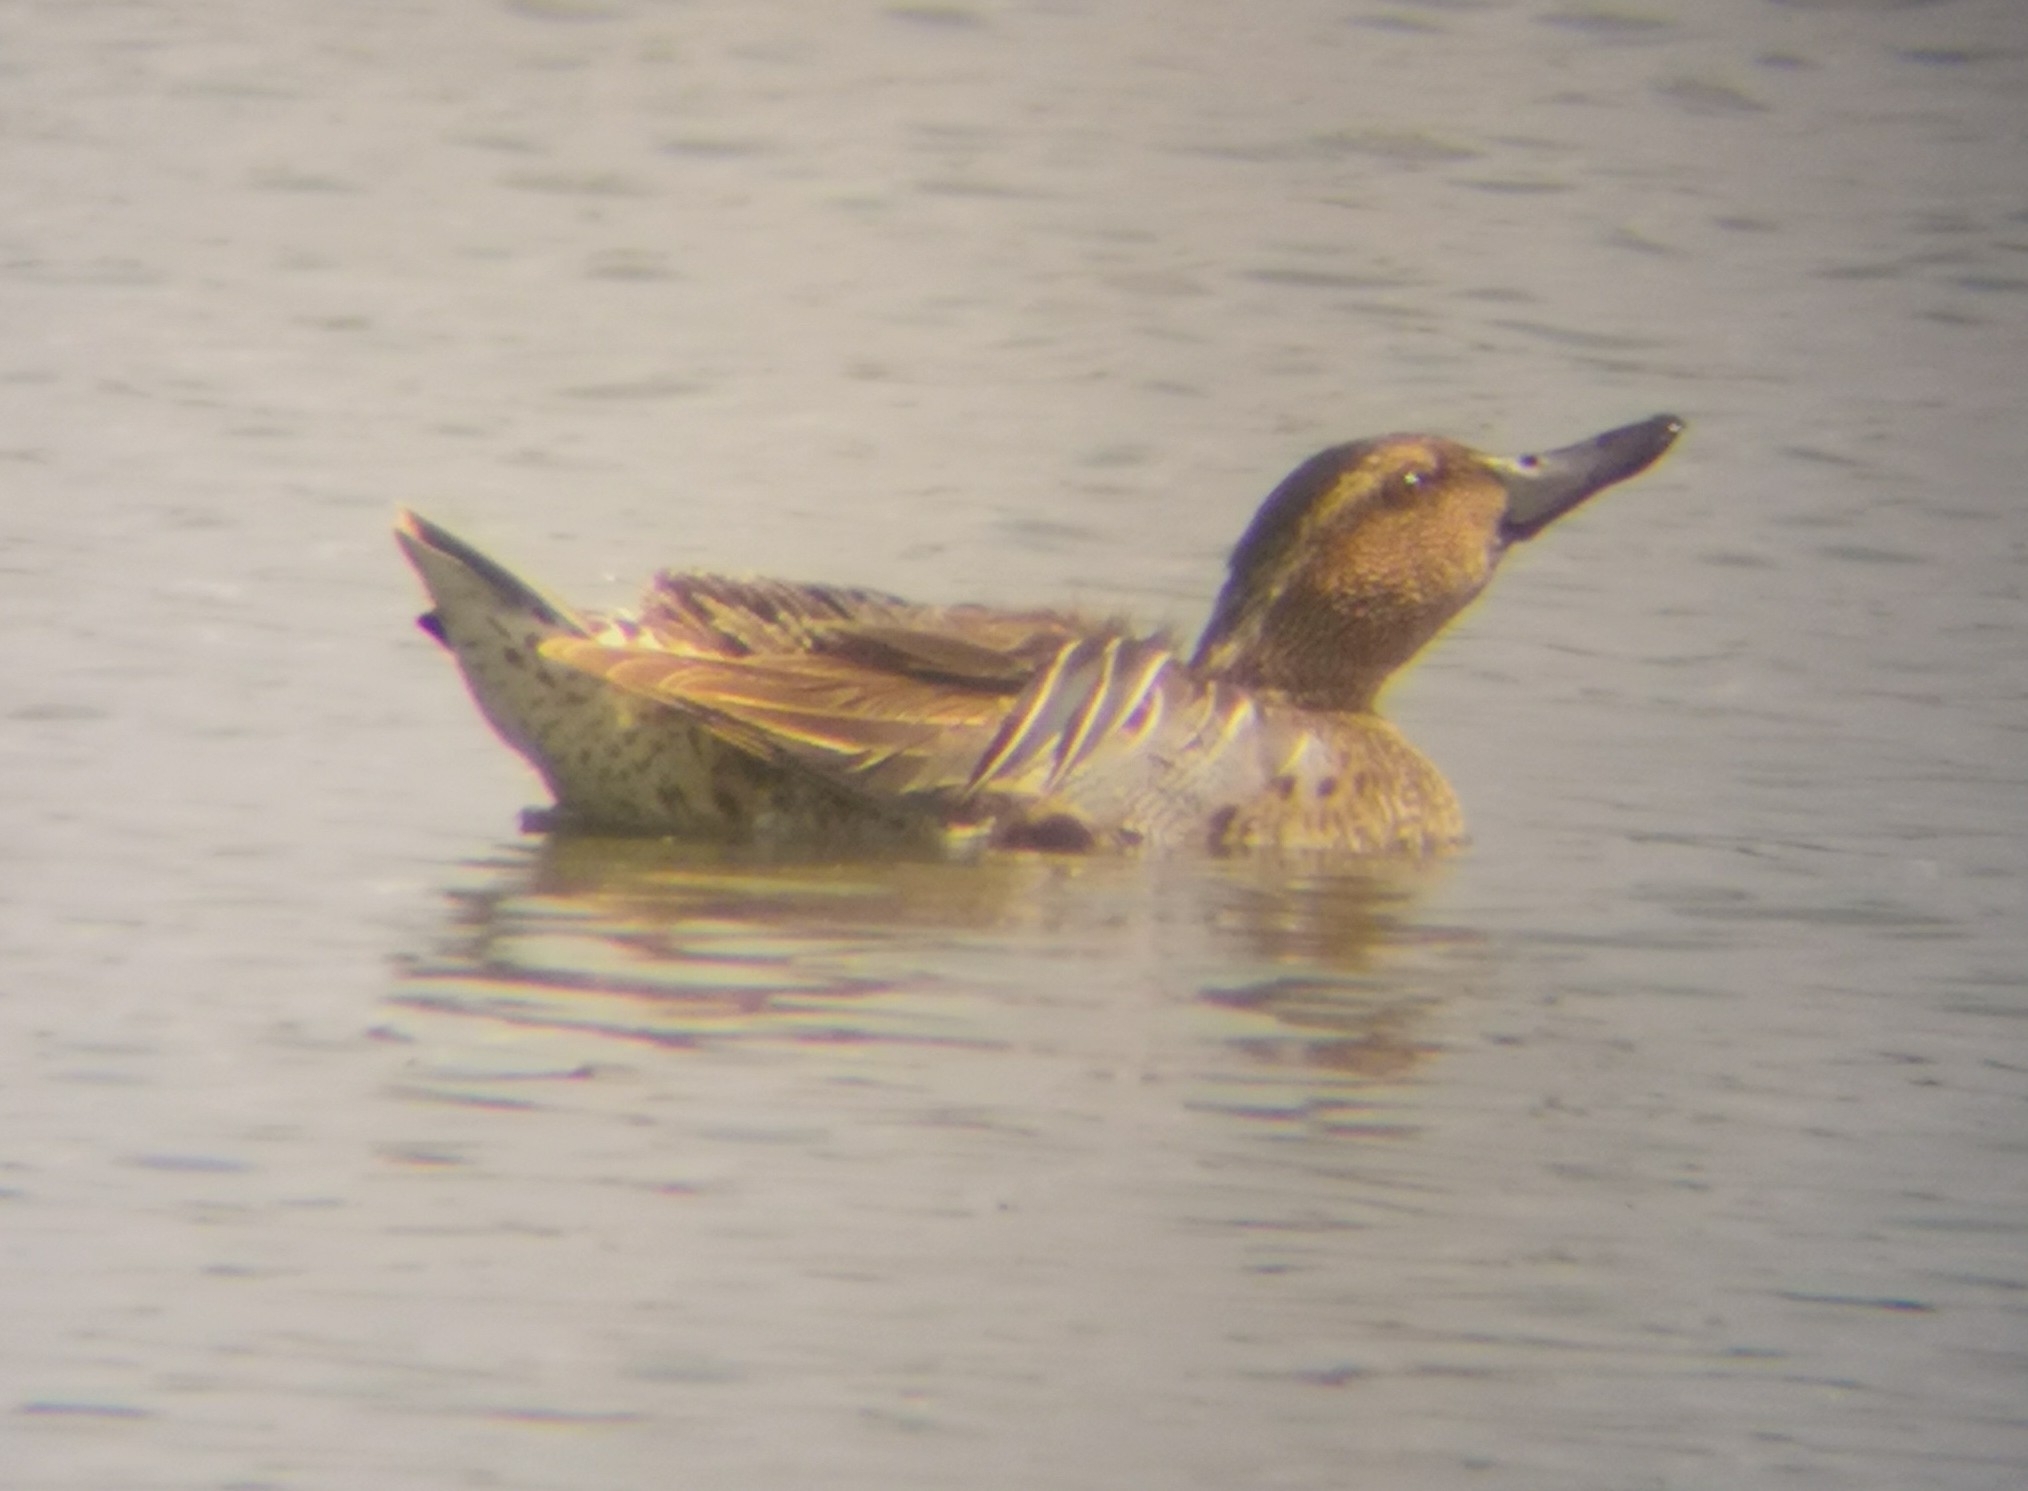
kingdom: Animalia
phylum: Chordata
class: Aves
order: Anseriformes
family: Anatidae
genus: Spatula
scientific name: Spatula querquedula
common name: Garganey
